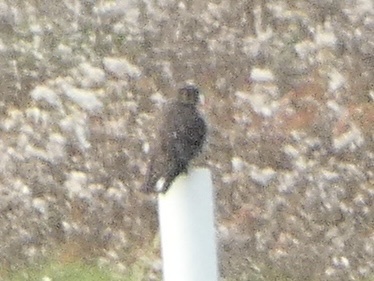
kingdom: Animalia
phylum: Chordata
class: Aves
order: Falconiformes
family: Falconidae
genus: Falco
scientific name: Falco columbarius
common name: Merlin
